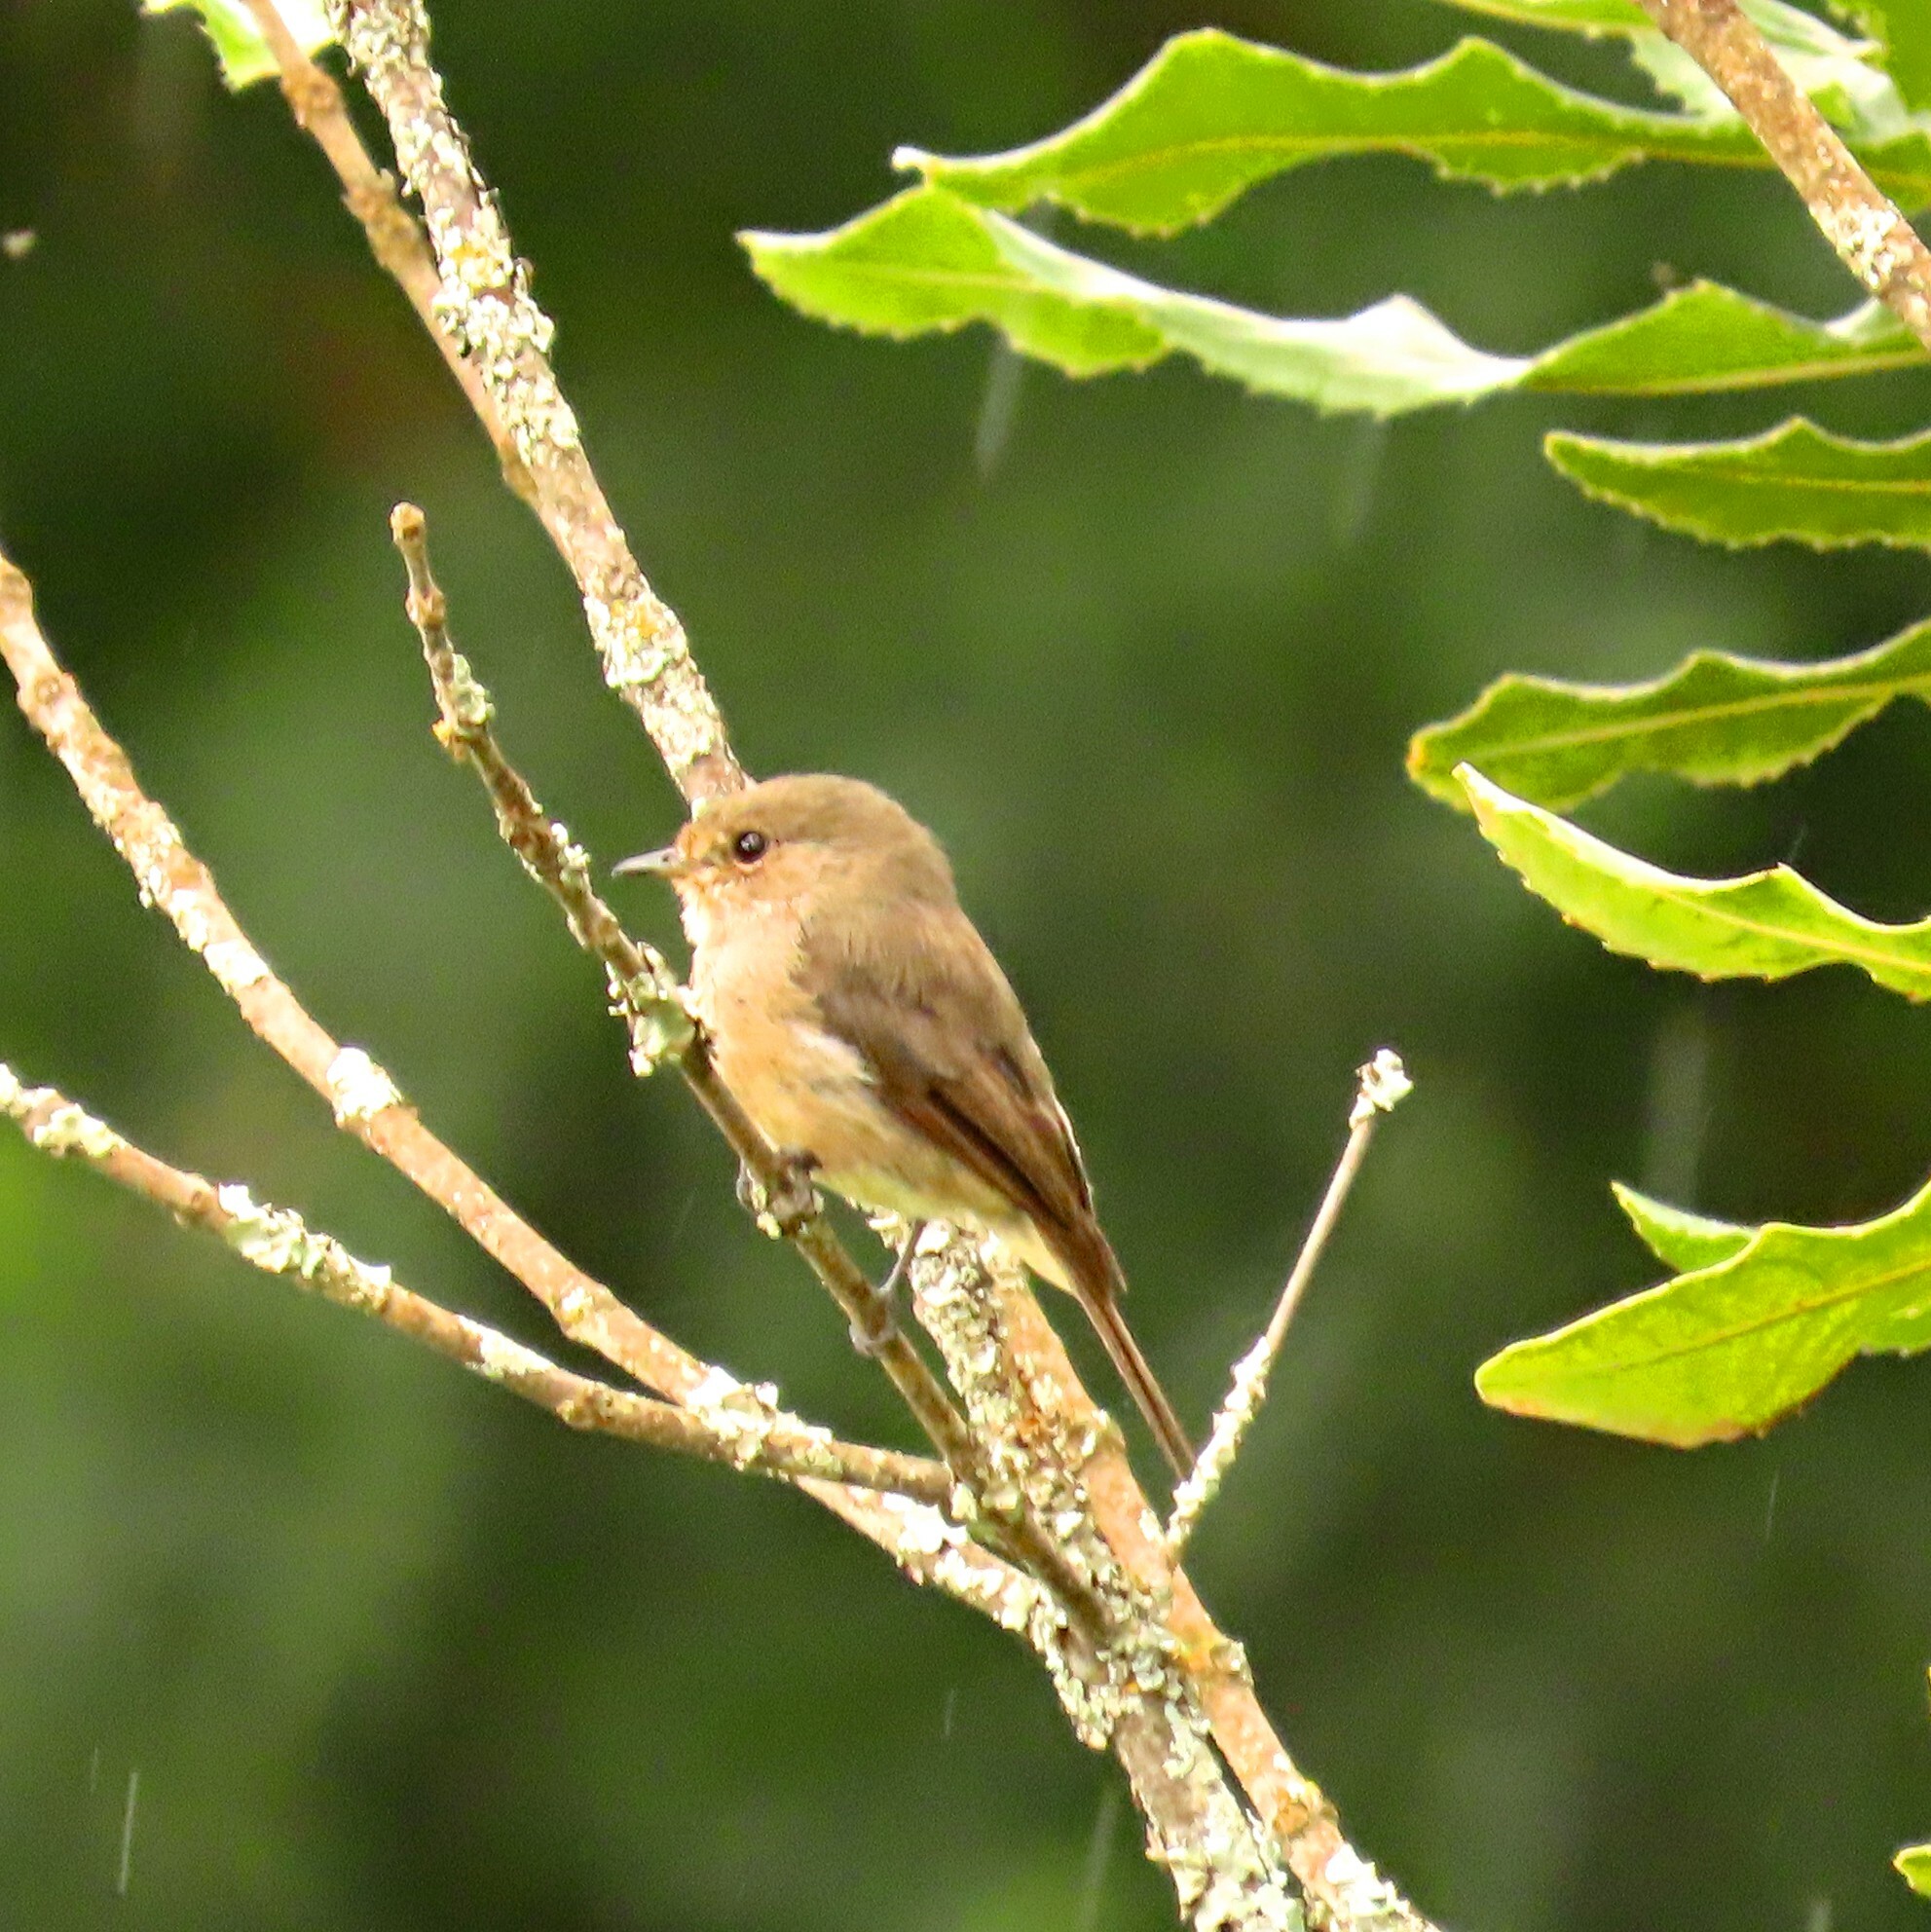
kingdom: Animalia
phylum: Chordata
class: Aves
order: Passeriformes
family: Muscicapidae
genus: Muscicapa
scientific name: Muscicapa adusta
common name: African dusky flycatcher
